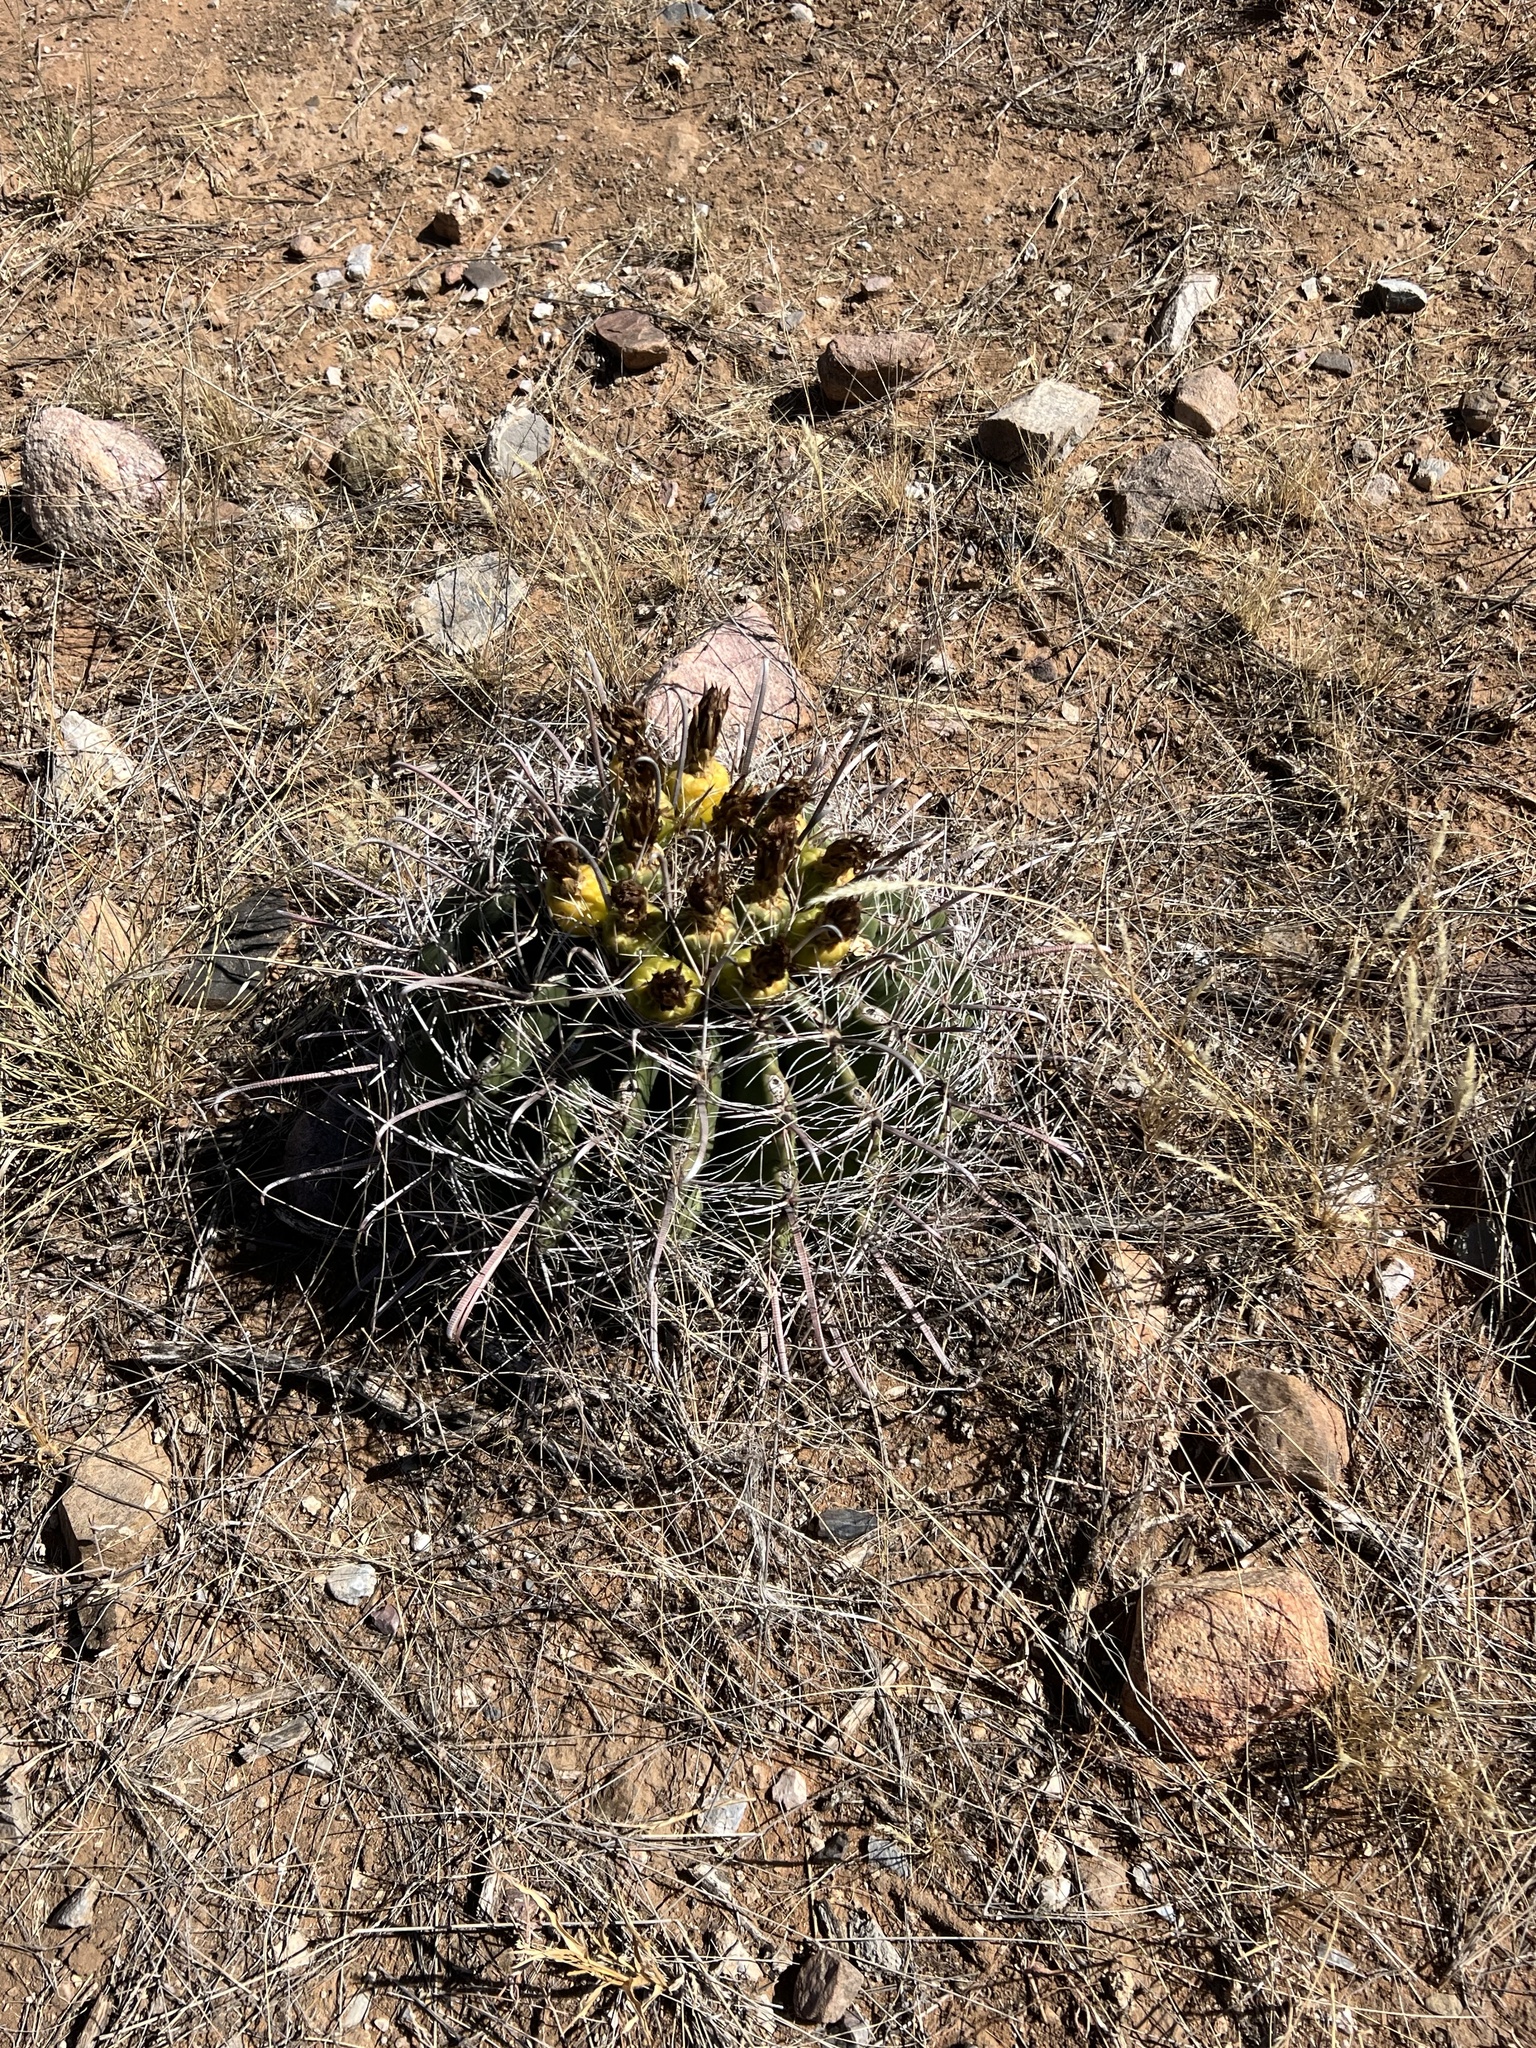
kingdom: Plantae
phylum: Tracheophyta
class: Magnoliopsida
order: Caryophyllales
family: Cactaceae
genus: Ferocactus
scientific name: Ferocactus wislizeni
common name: Candy barrel cactus
